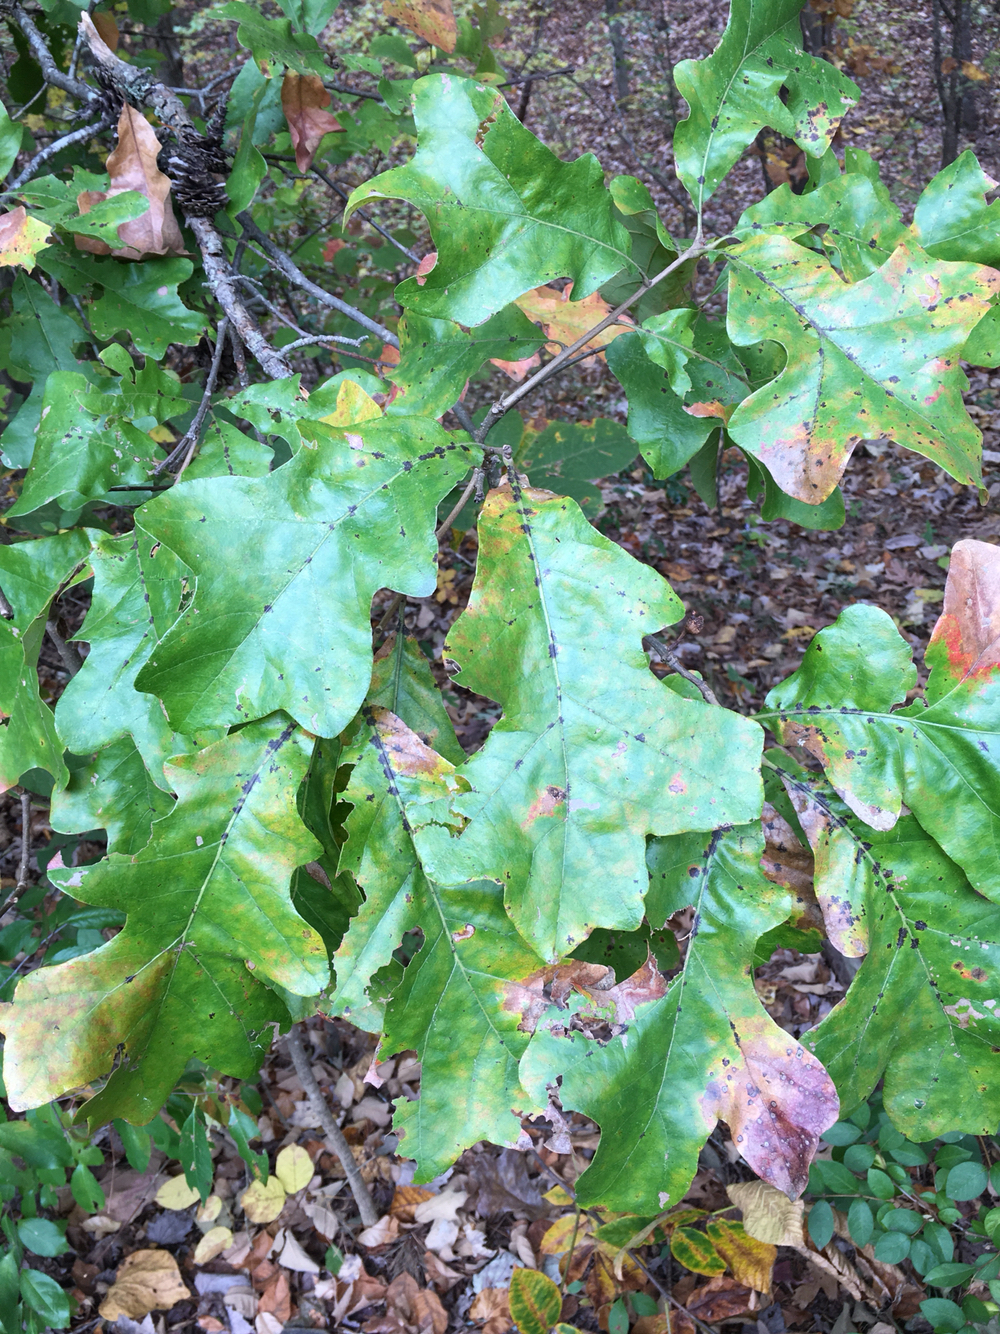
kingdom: Plantae
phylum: Tracheophyta
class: Magnoliopsida
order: Fagales
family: Fagaceae
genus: Quercus
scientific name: Quercus stellata
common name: Post oak
